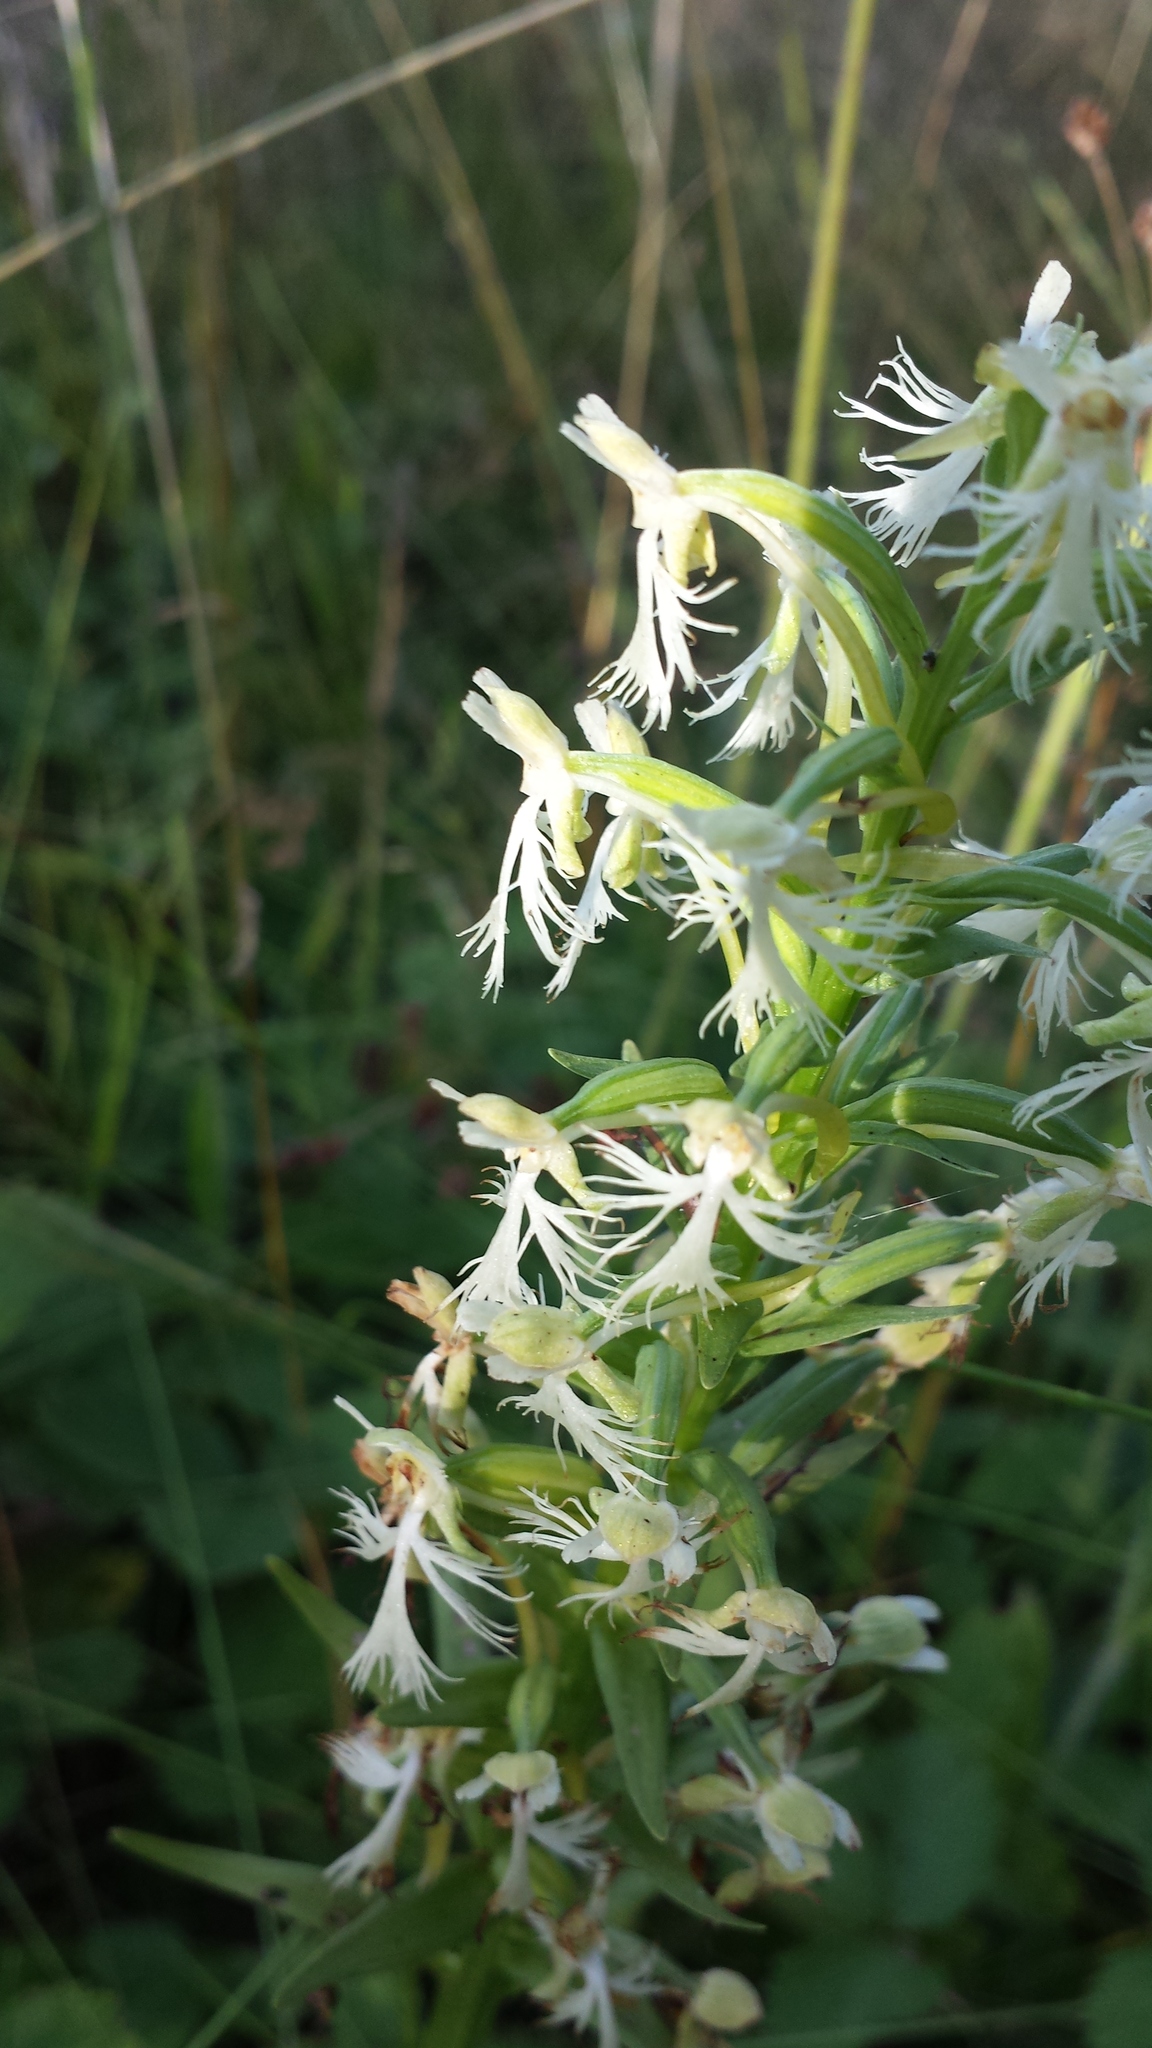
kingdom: Plantae
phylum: Tracheophyta
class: Liliopsida
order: Asparagales
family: Orchidaceae
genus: Platanthera
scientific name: Platanthera lacera
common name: Green fringed orchid
